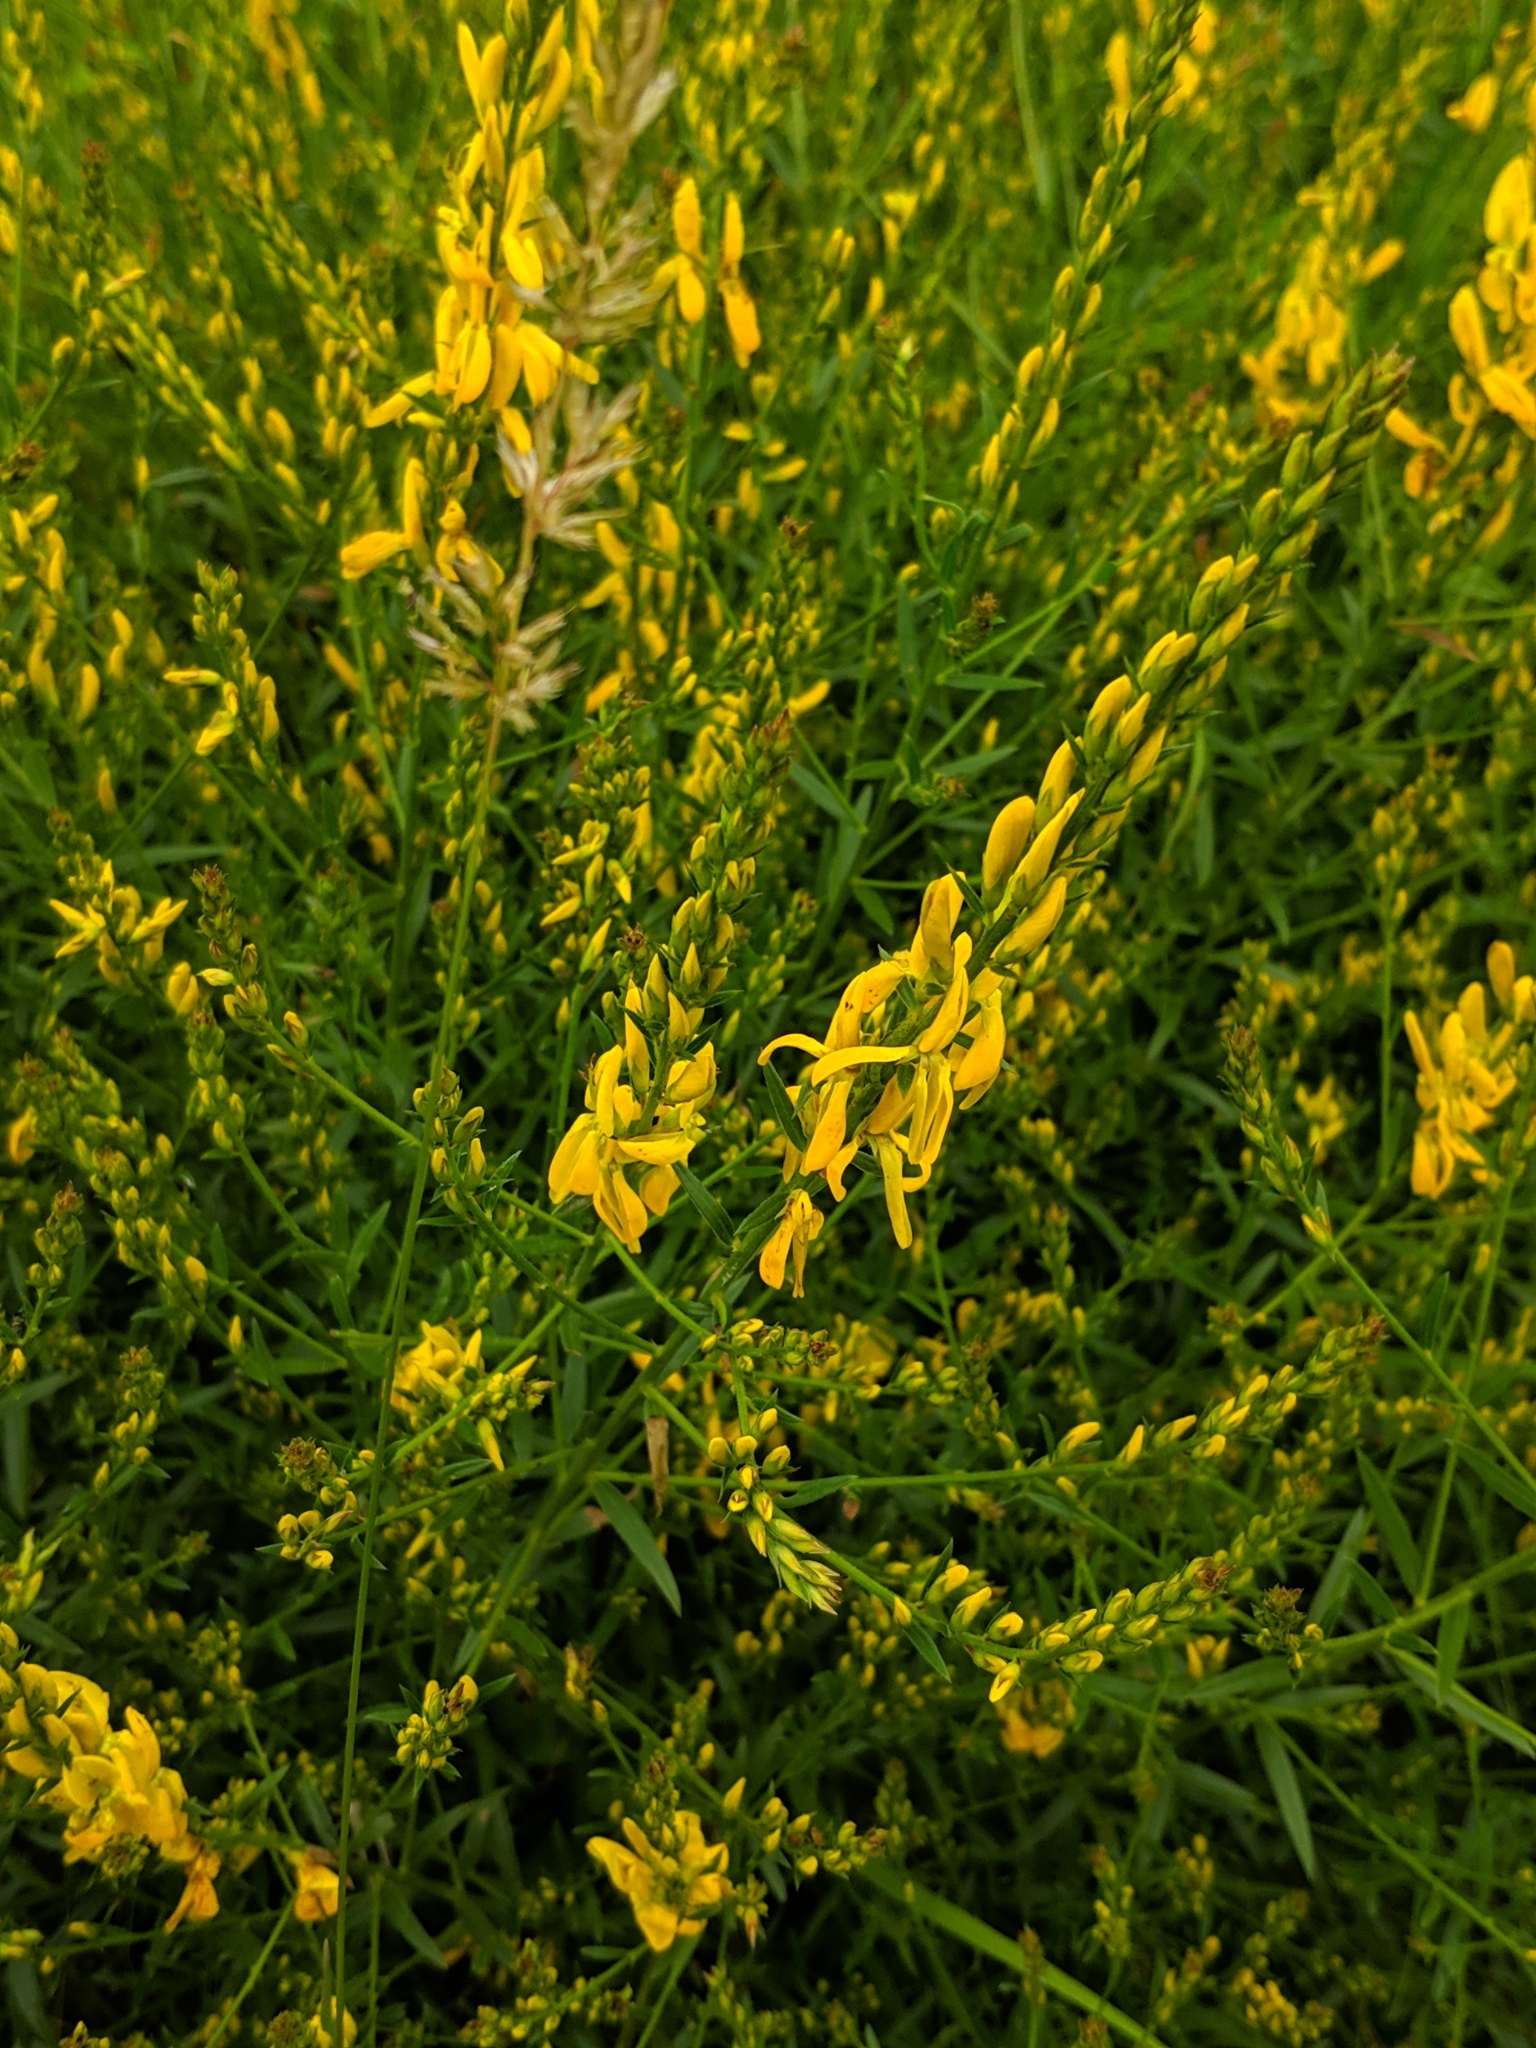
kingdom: Plantae
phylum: Tracheophyta
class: Magnoliopsida
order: Fabales
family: Fabaceae
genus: Genista
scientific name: Genista tinctoria
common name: Dyer's greenweed
